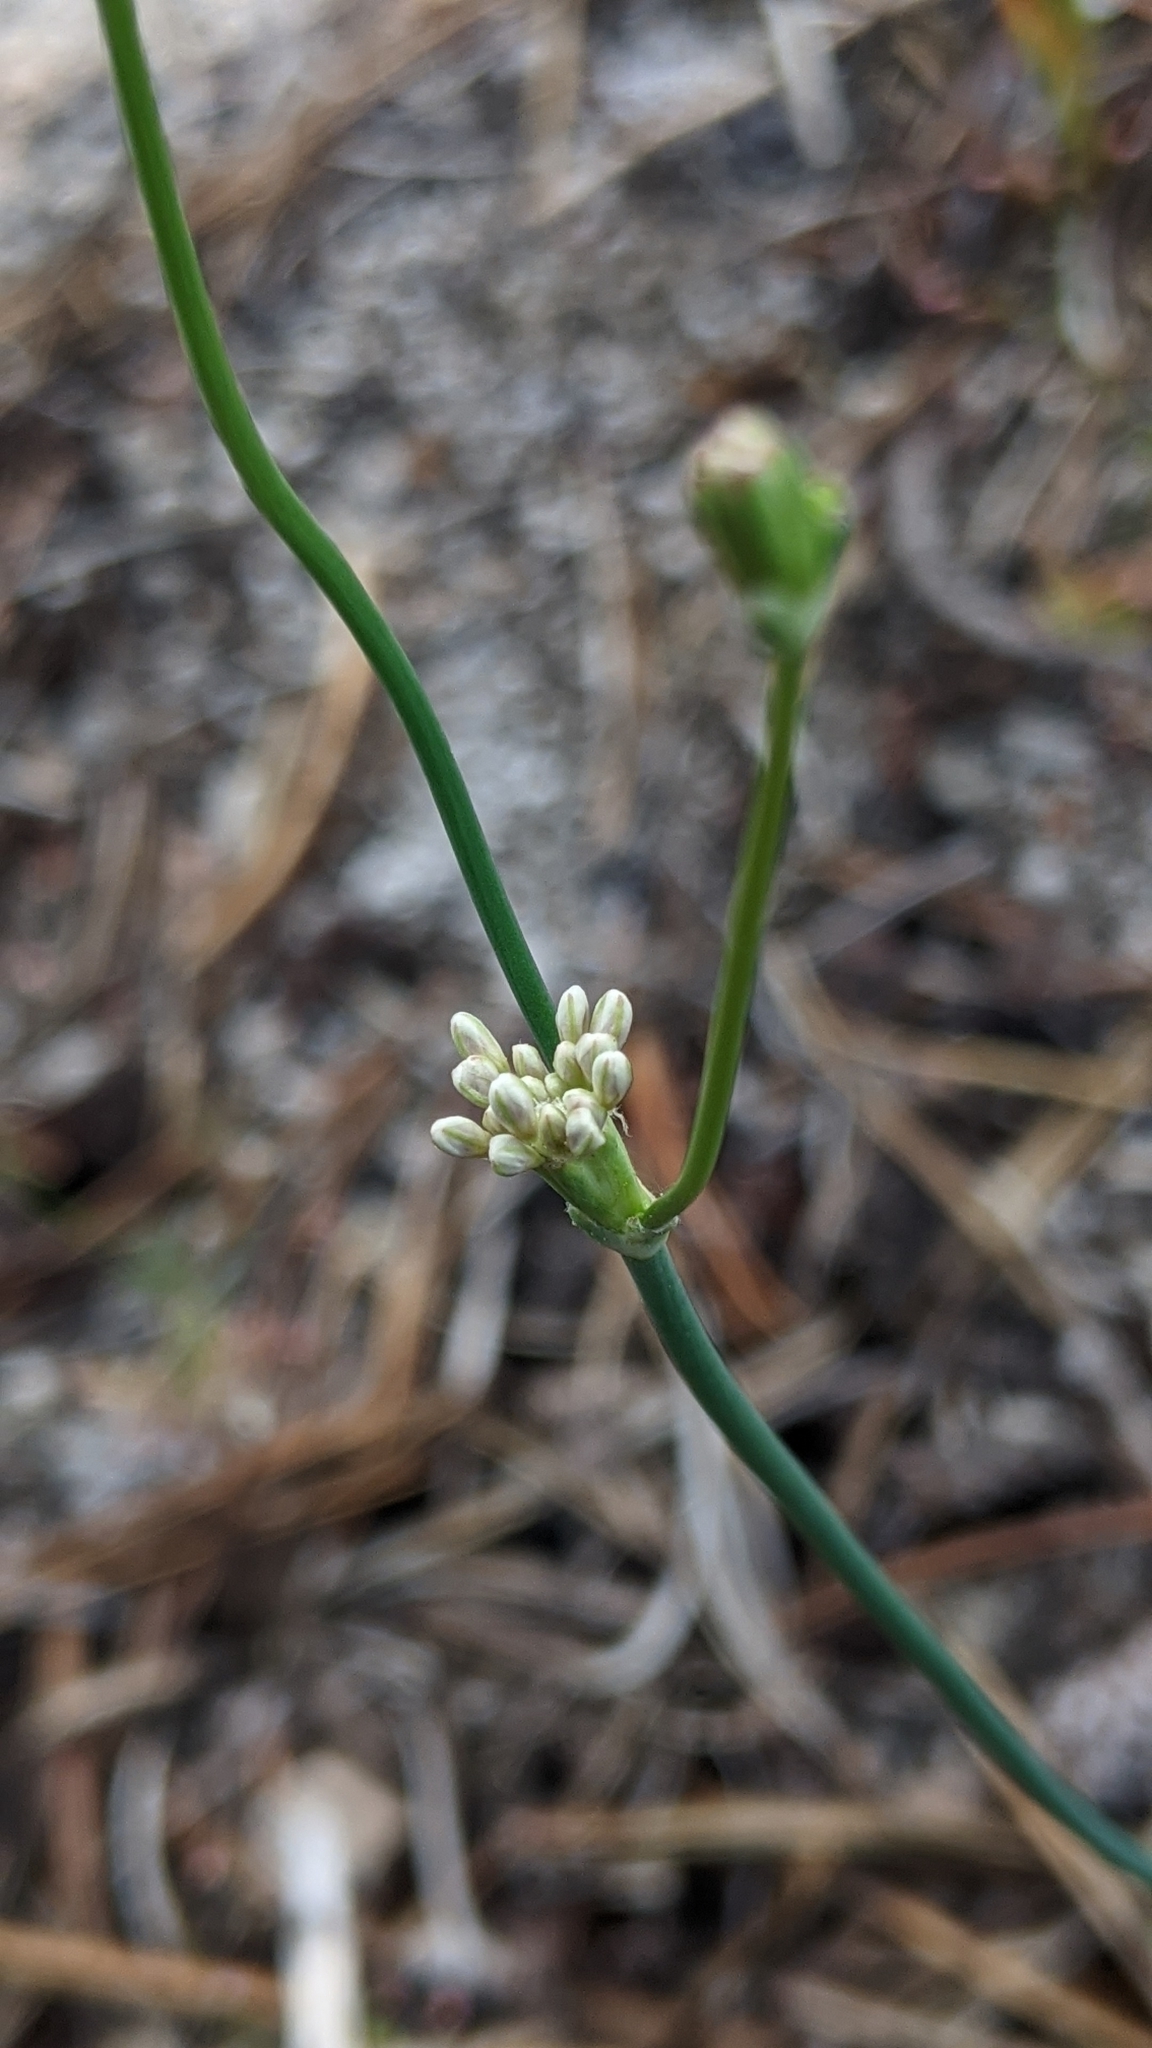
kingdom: Plantae
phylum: Tracheophyta
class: Magnoliopsida
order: Caryophyllales
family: Polygonaceae
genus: Eriogonum
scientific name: Eriogonum nudum
